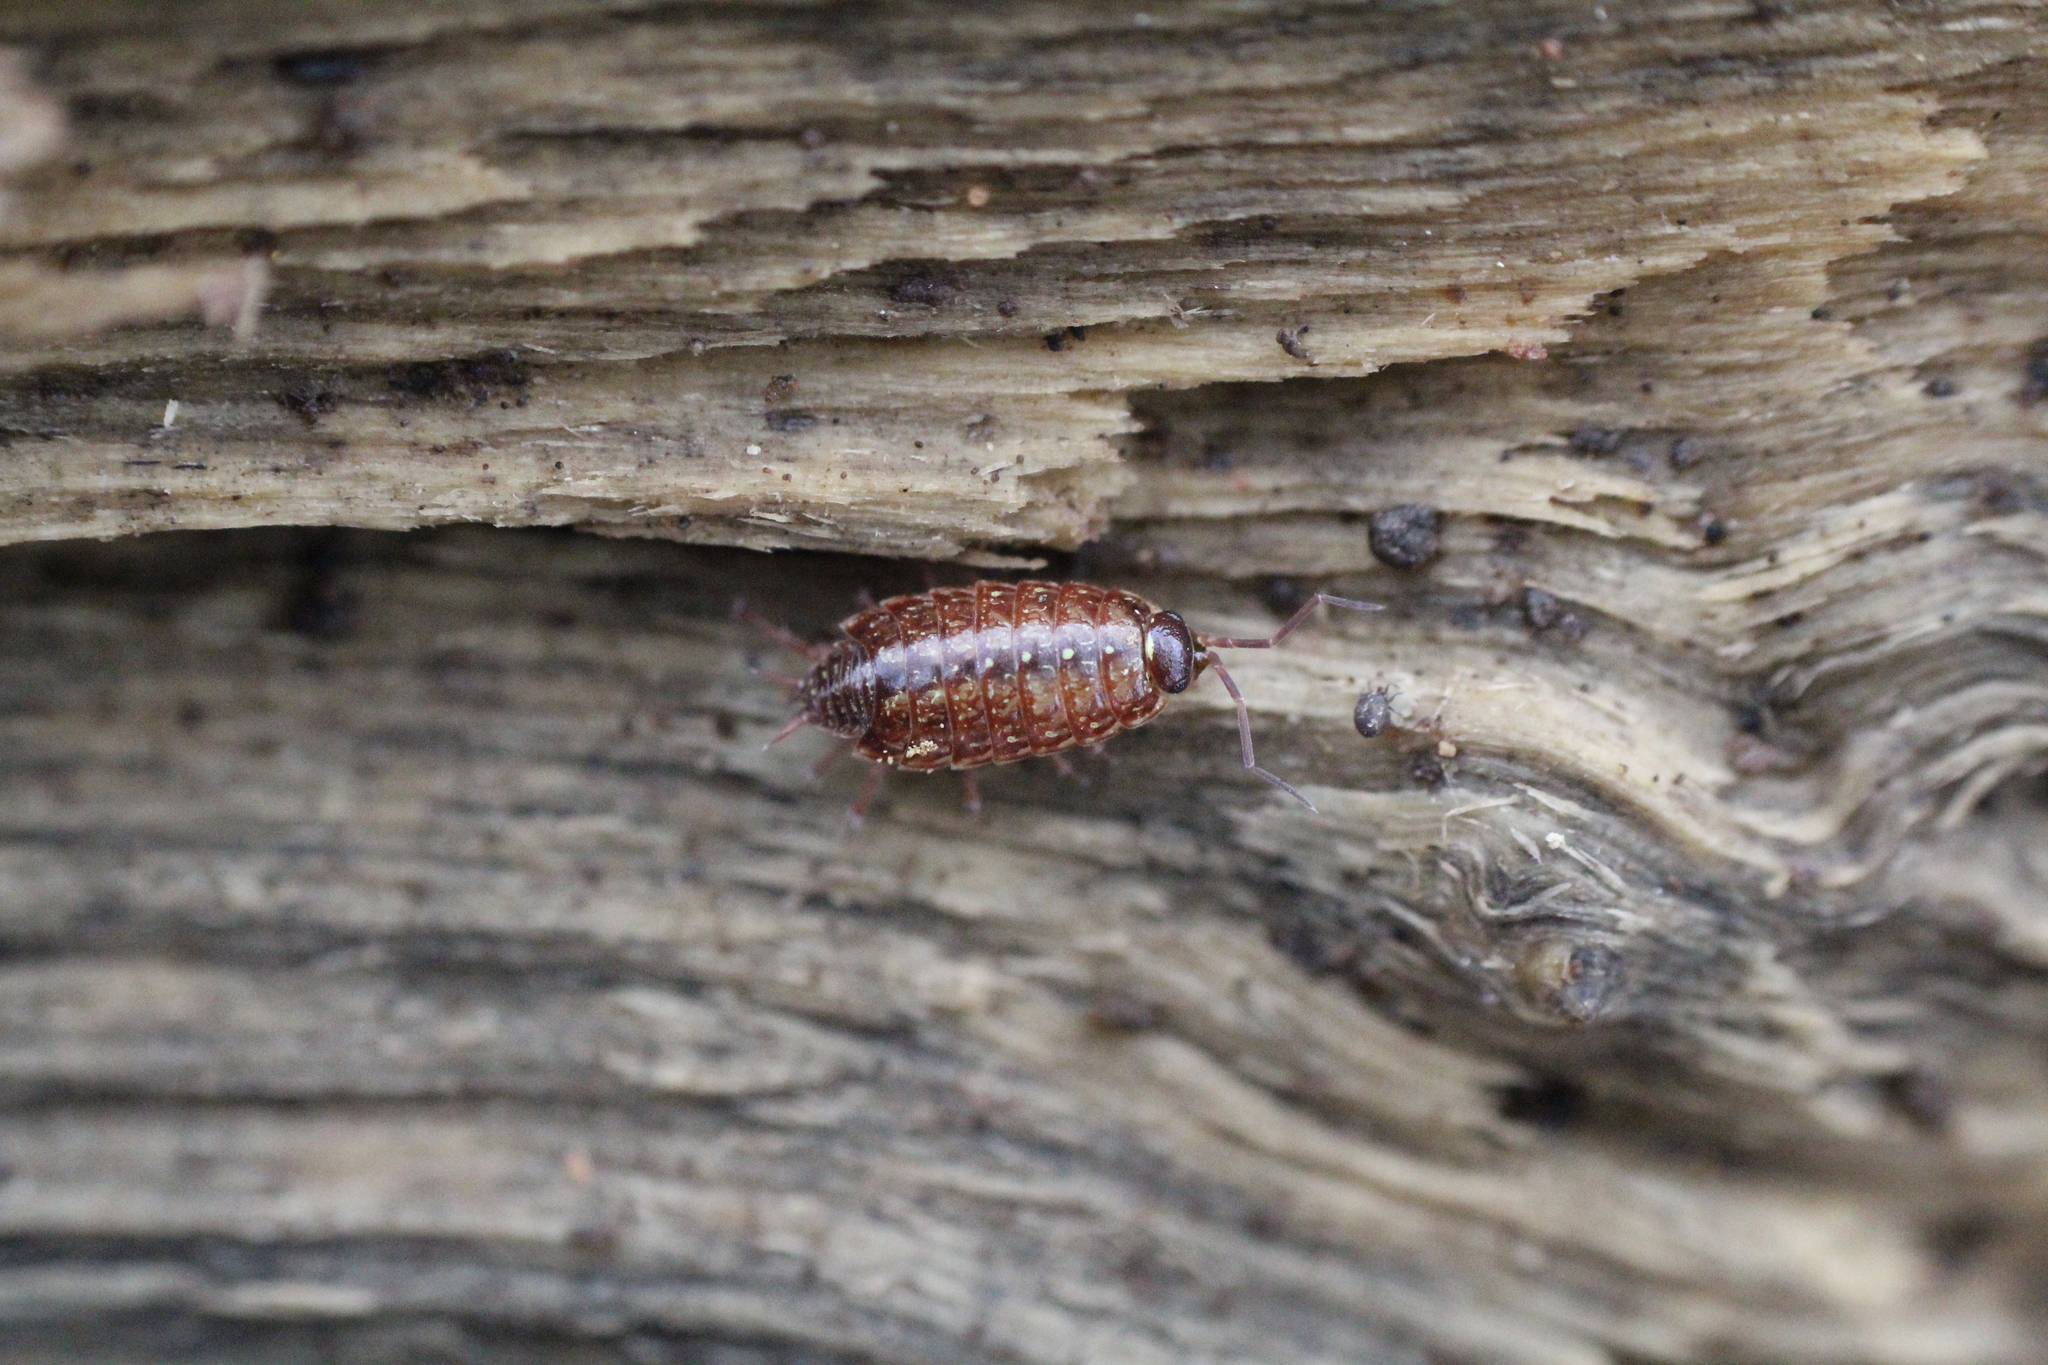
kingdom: Animalia
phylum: Arthropoda
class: Malacostraca
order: Isopoda
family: Philosciidae
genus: Philoscia
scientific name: Philoscia muscorum
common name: Common striped woodlouse
